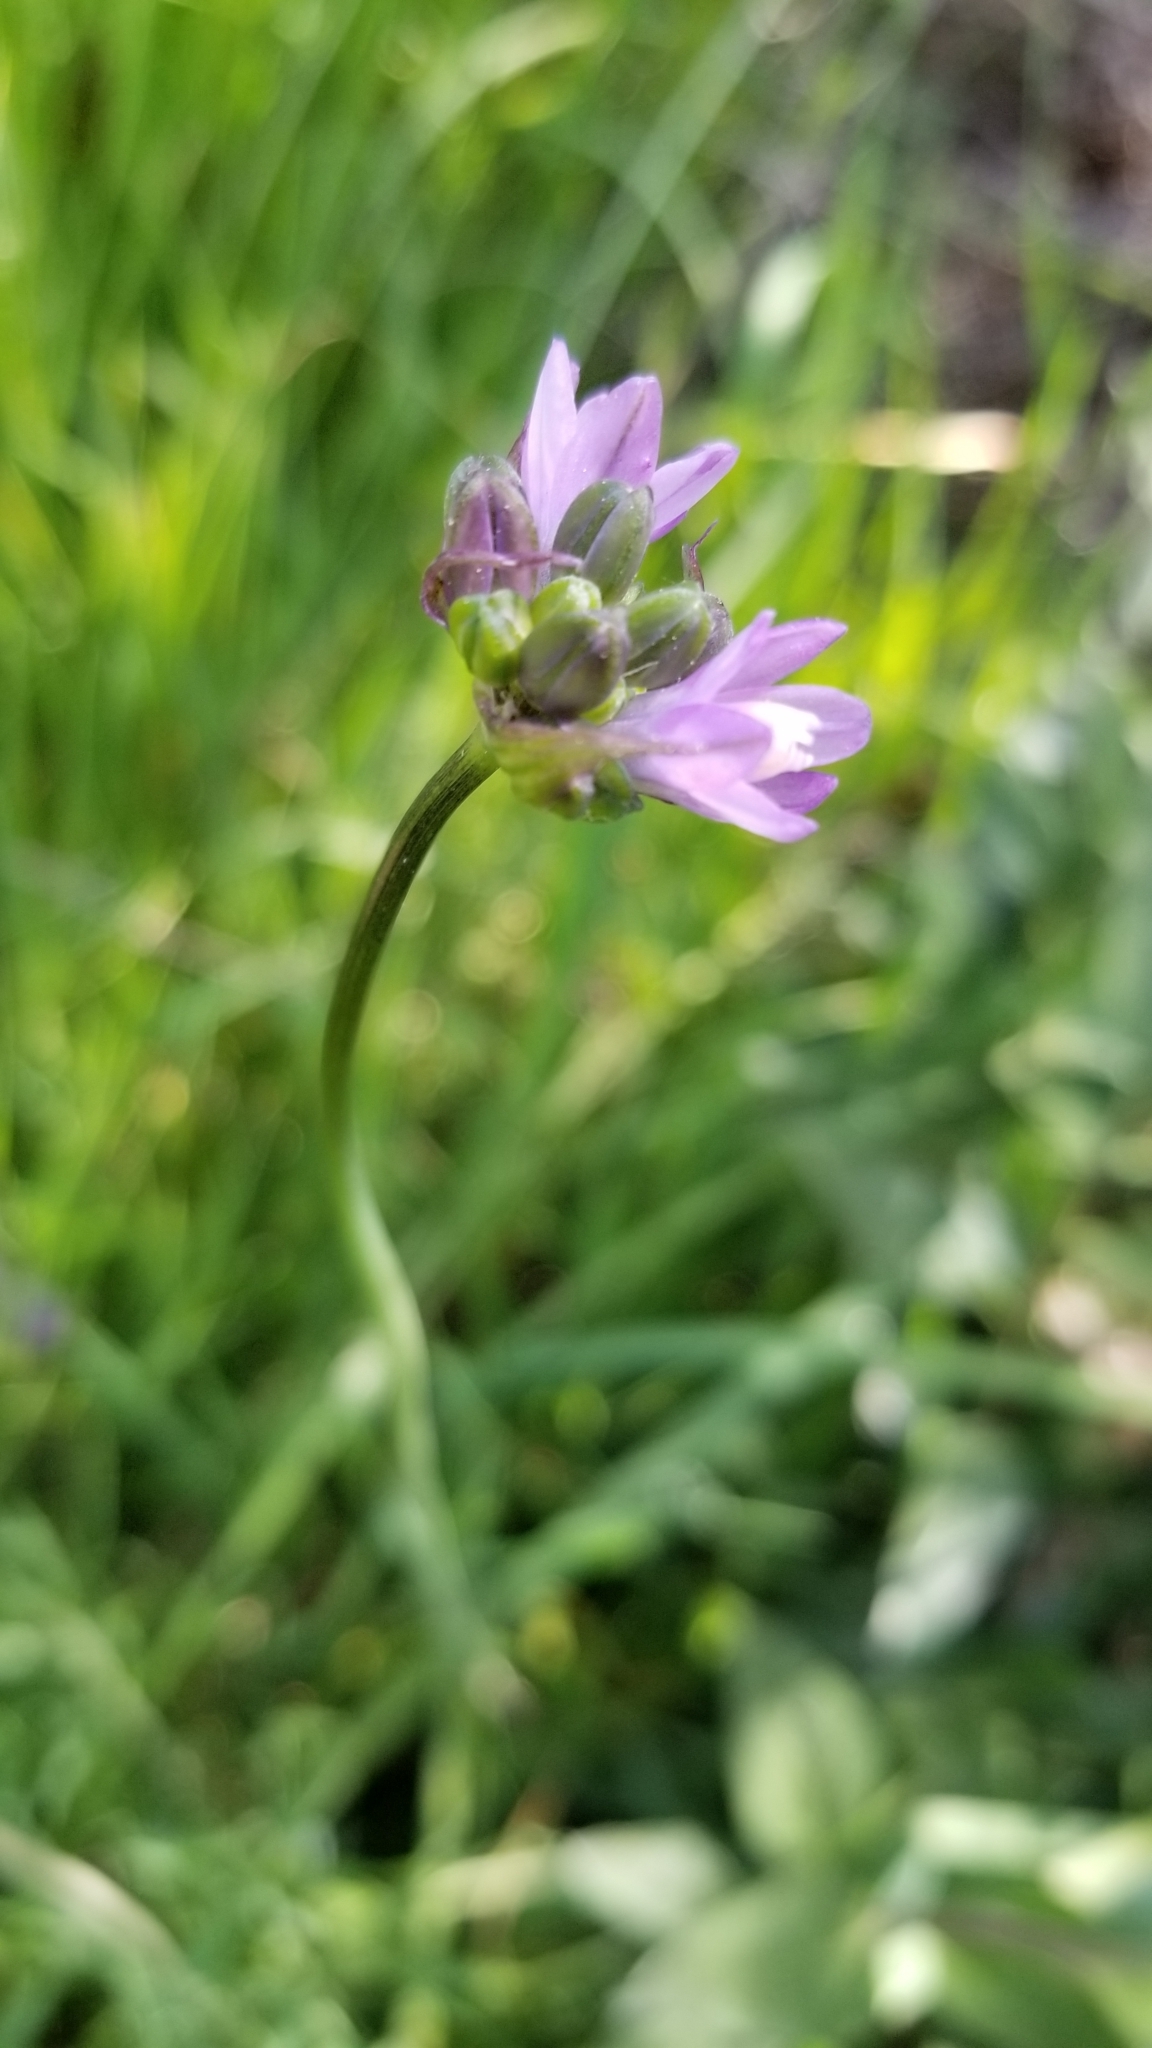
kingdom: Plantae
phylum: Tracheophyta
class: Liliopsida
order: Asparagales
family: Asparagaceae
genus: Dipterostemon
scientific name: Dipterostemon capitatus
